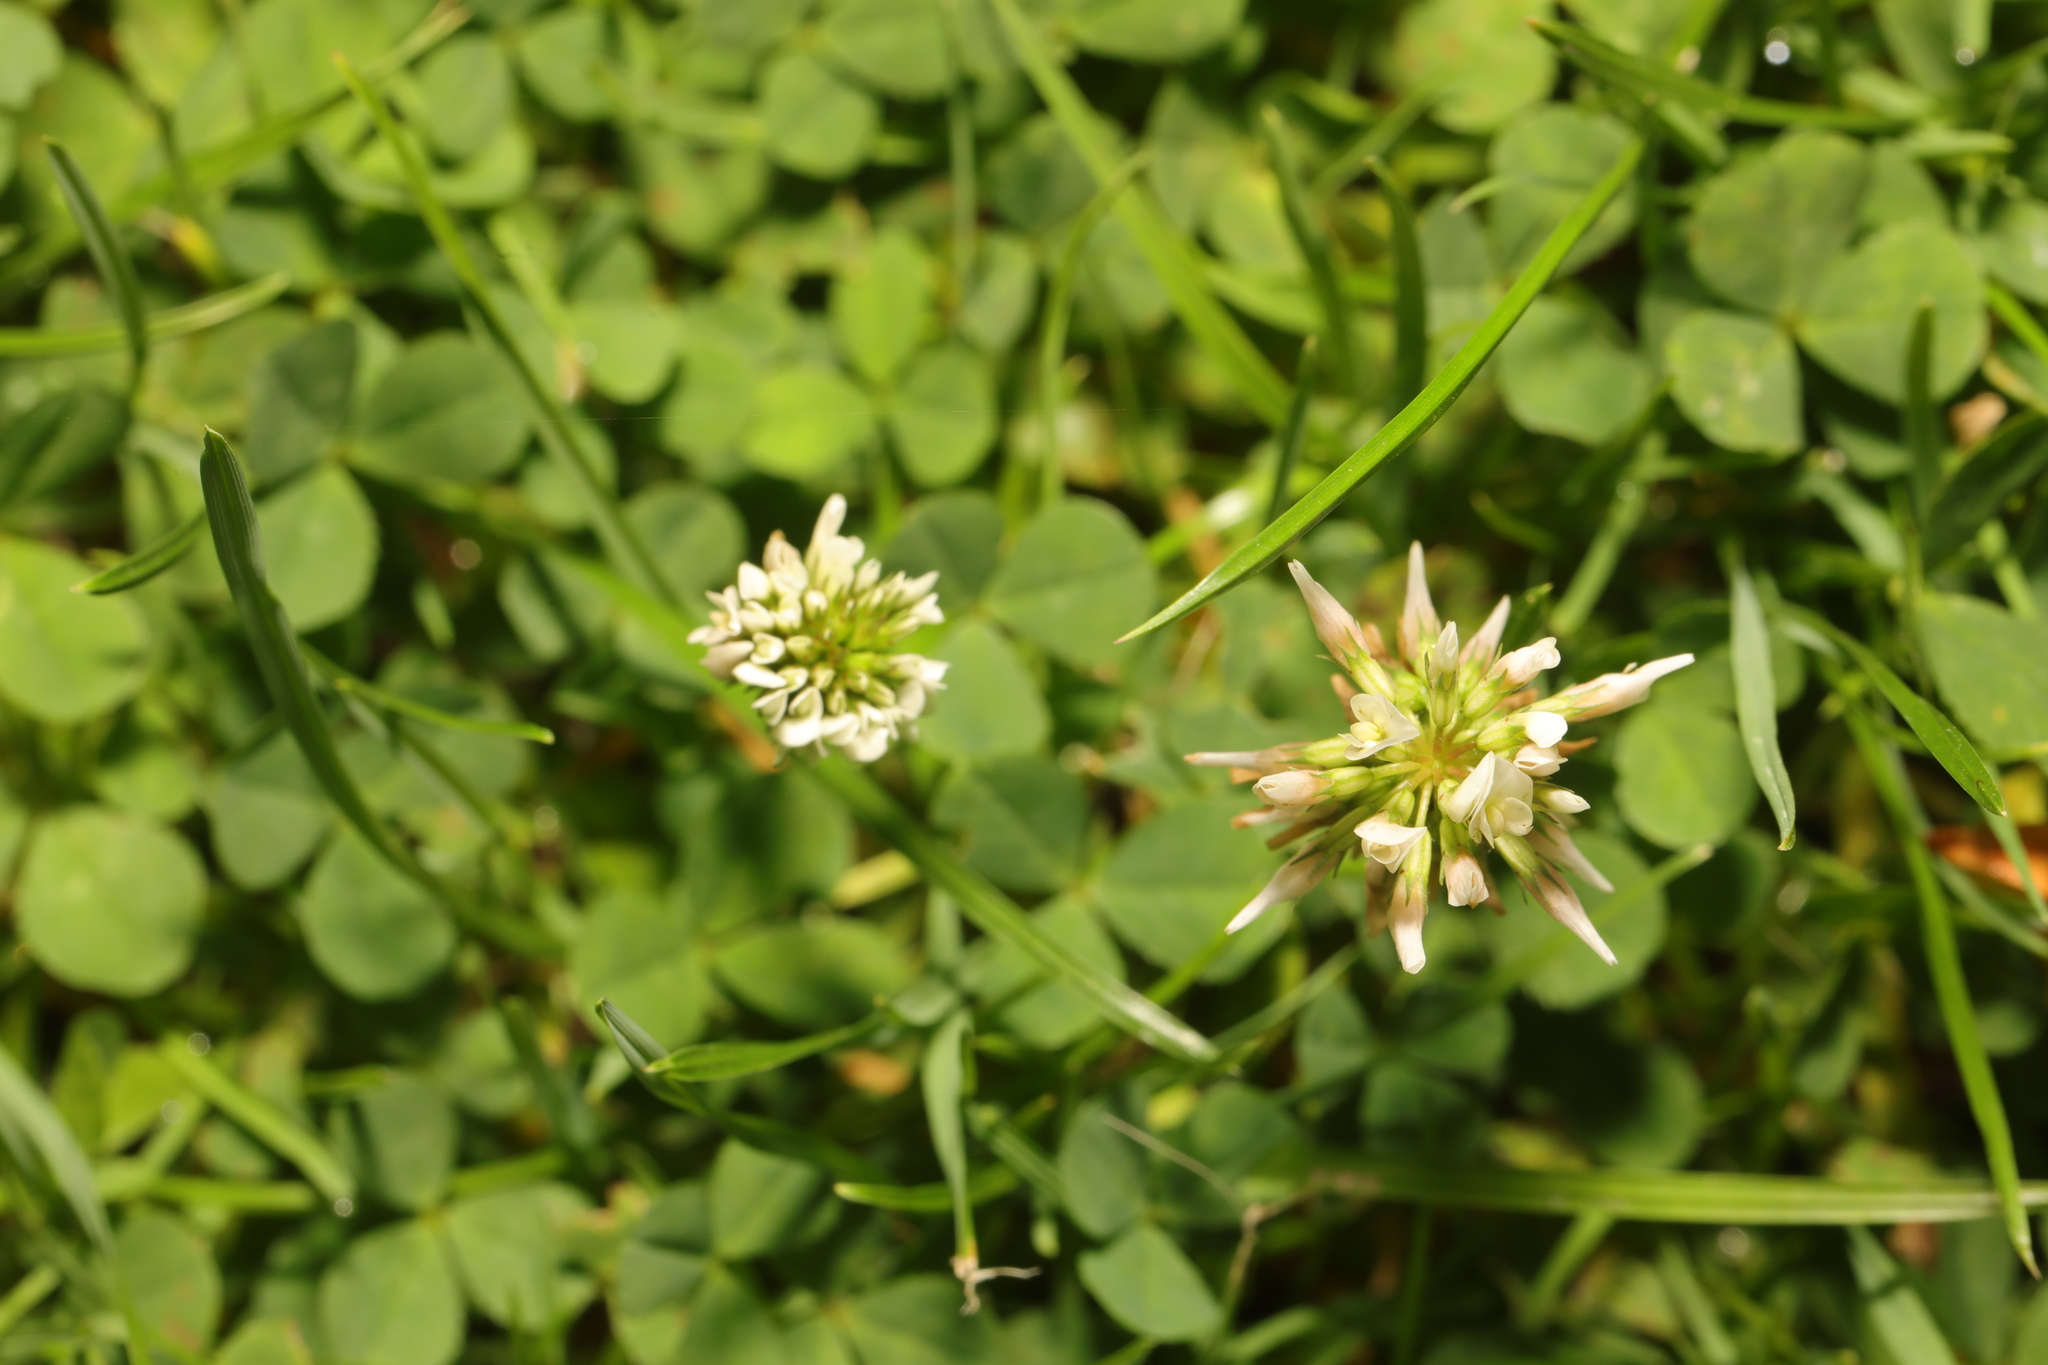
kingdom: Plantae
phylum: Tracheophyta
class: Magnoliopsida
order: Fabales
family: Fabaceae
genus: Trifolium
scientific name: Trifolium repens
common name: White clover
